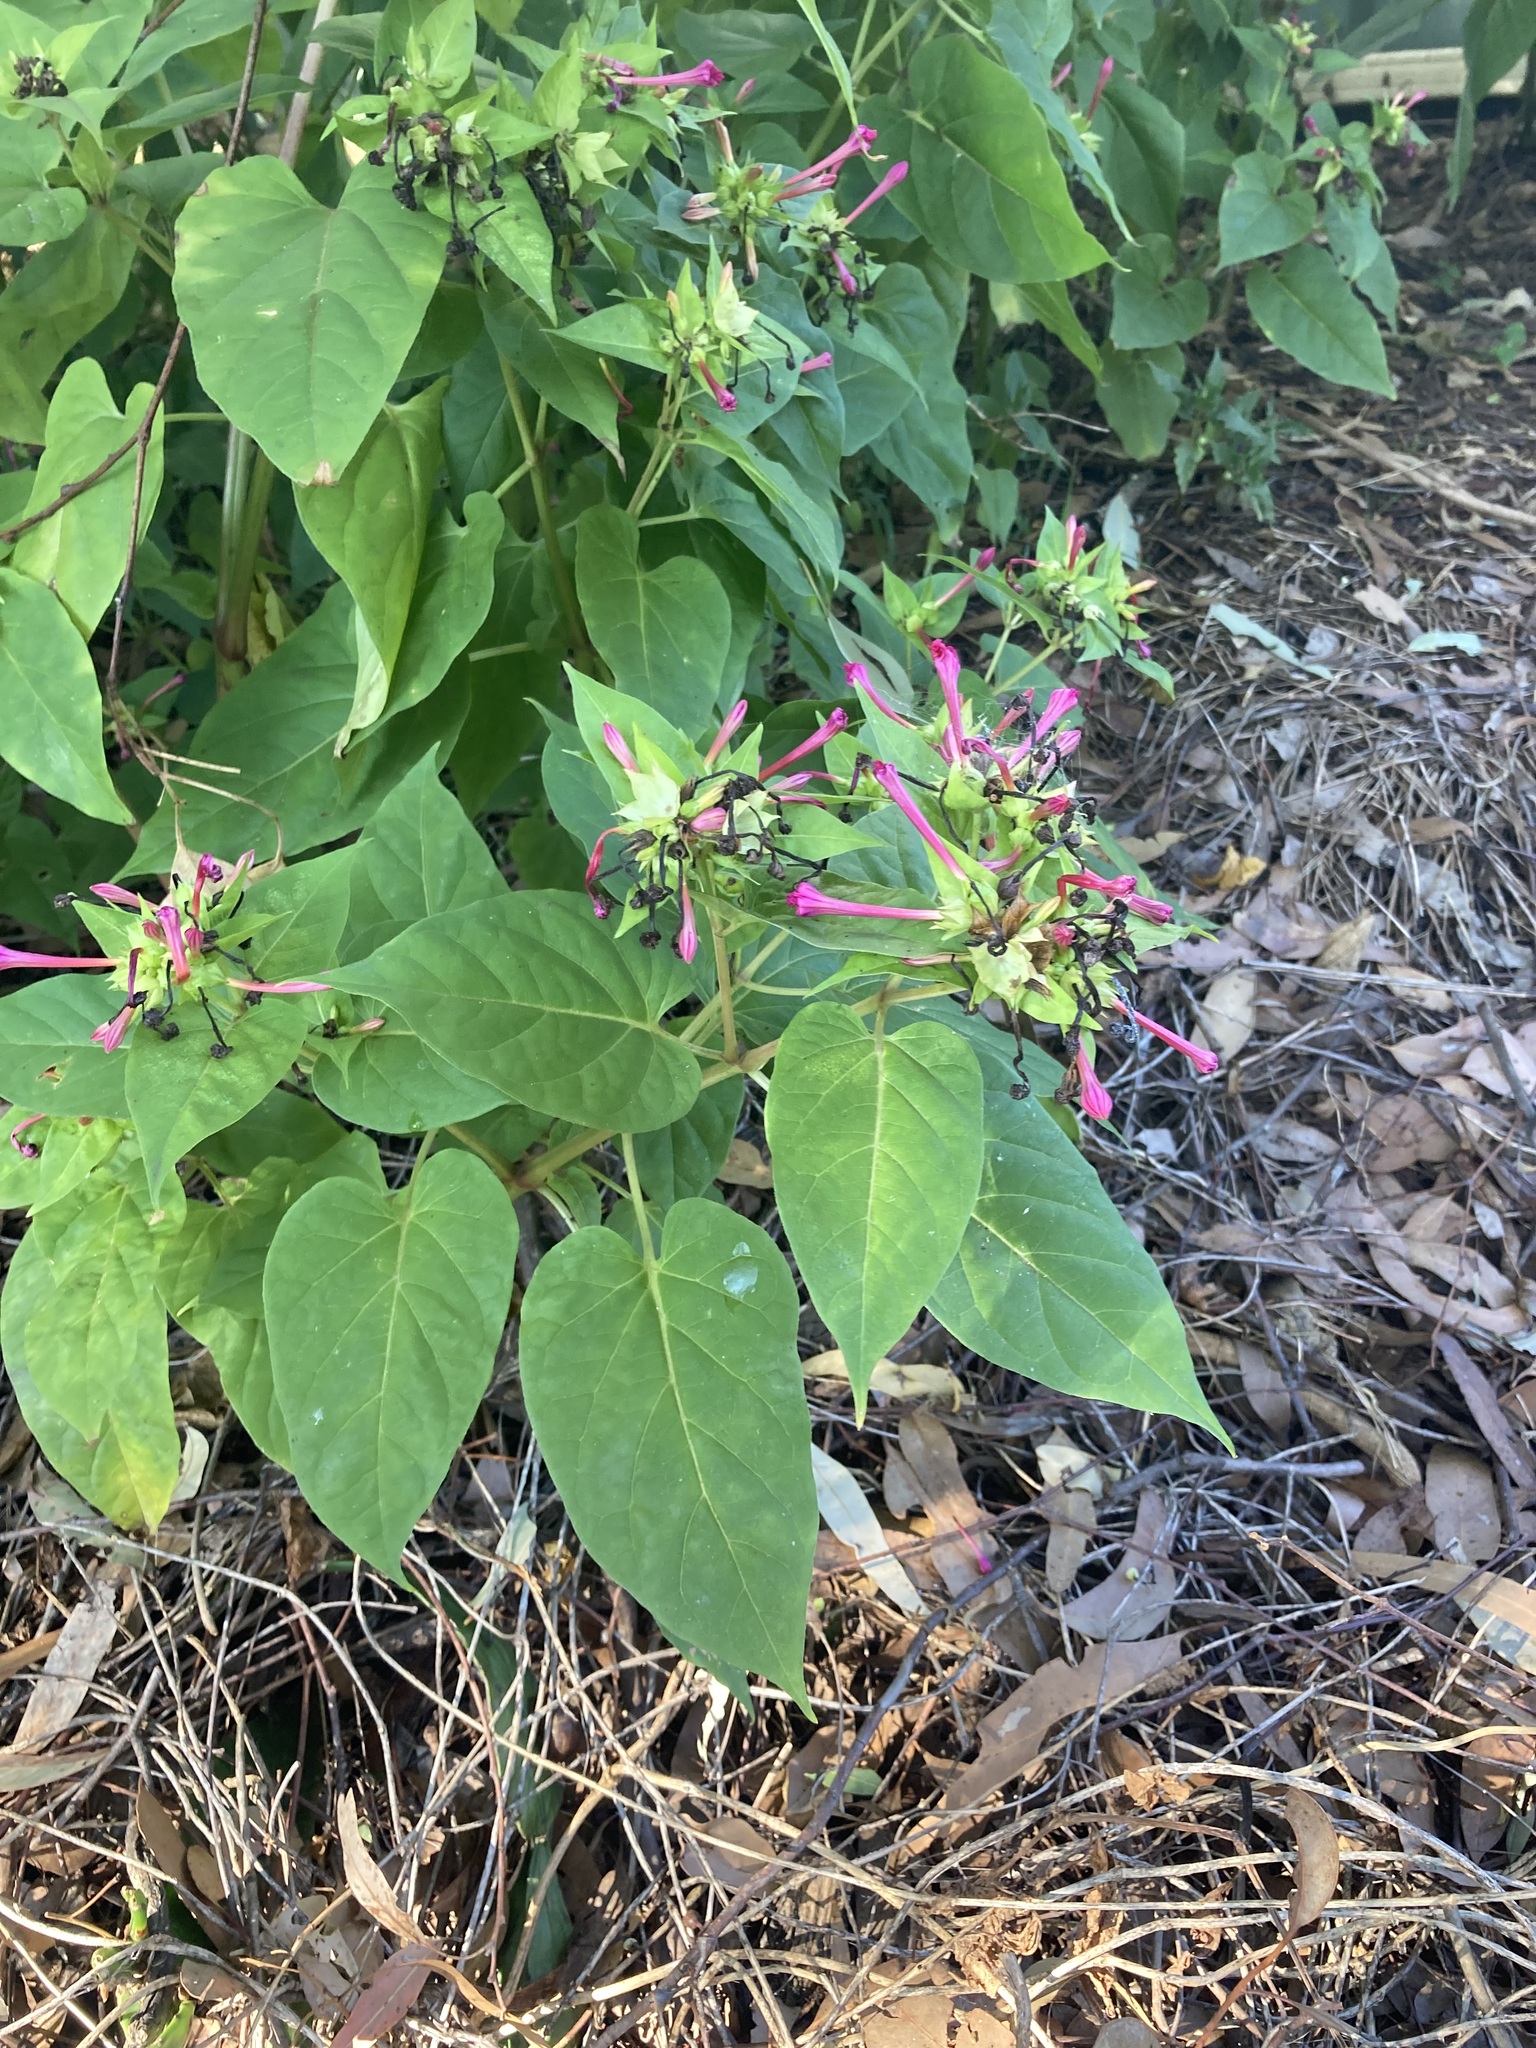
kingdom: Plantae
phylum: Tracheophyta
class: Magnoliopsida
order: Caryophyllales
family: Nyctaginaceae
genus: Mirabilis
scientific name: Mirabilis jalapa
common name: Marvel-of-peru
